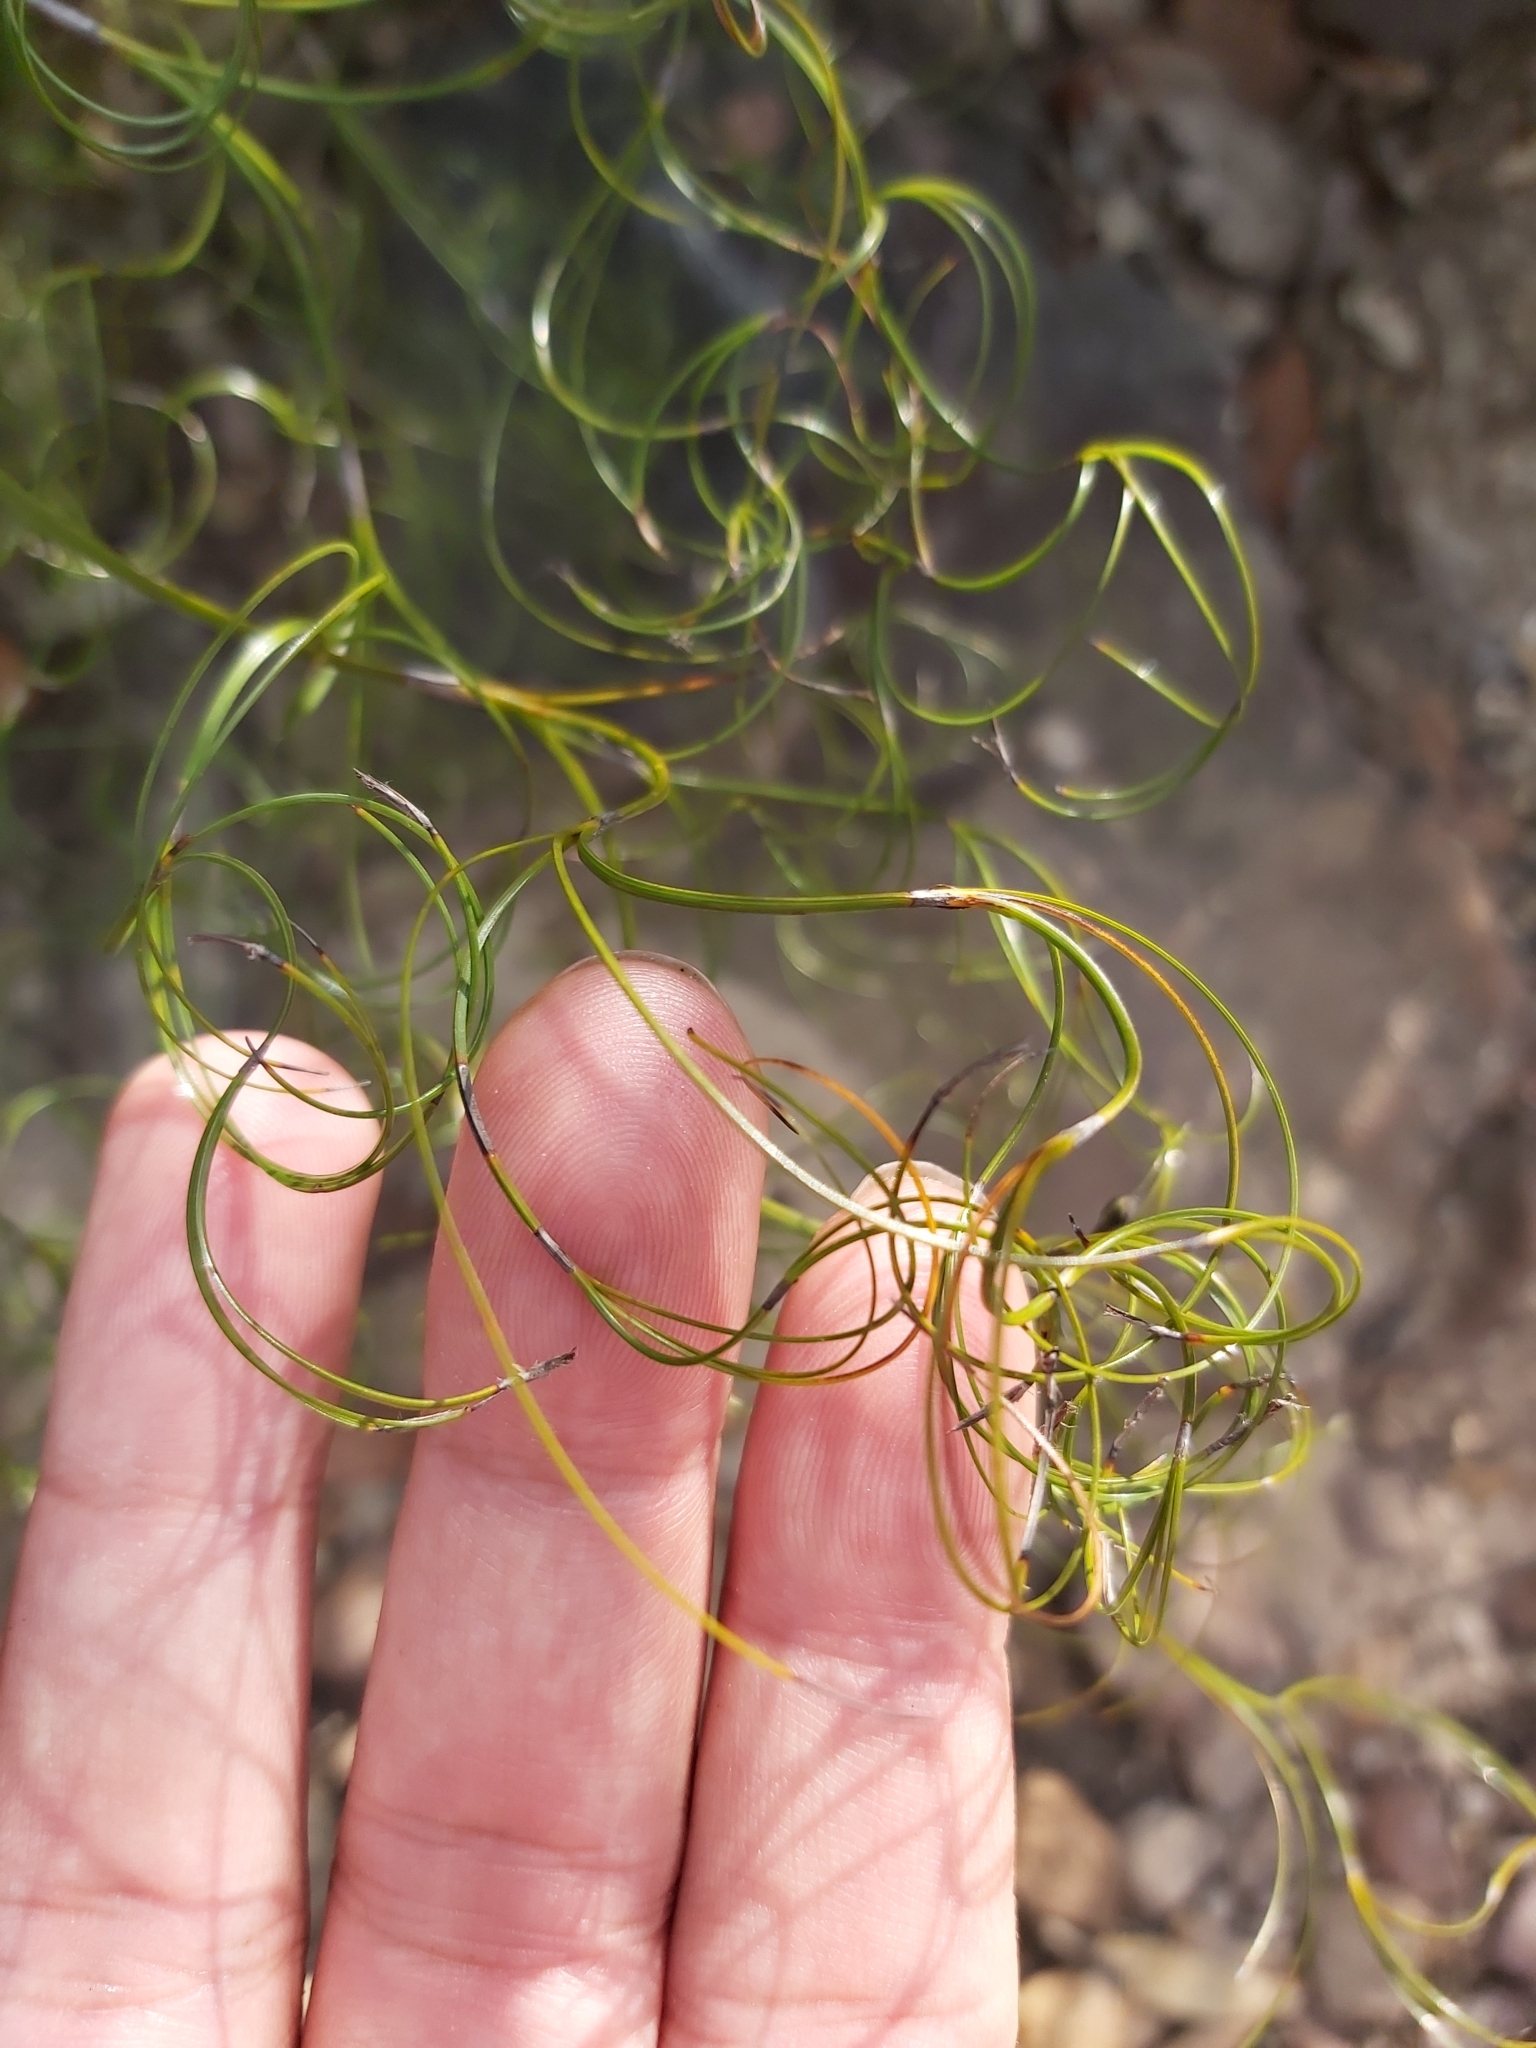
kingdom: Plantae
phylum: Tracheophyta
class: Liliopsida
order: Poales
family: Cyperaceae
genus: Caustis
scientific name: Caustis flexuosa
